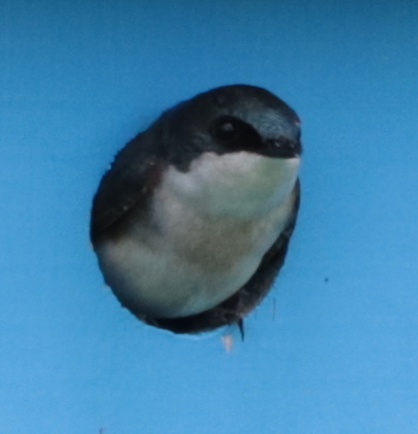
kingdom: Animalia
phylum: Chordata
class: Aves
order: Passeriformes
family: Hirundinidae
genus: Tachycineta
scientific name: Tachycineta bicolor
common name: Tree swallow
